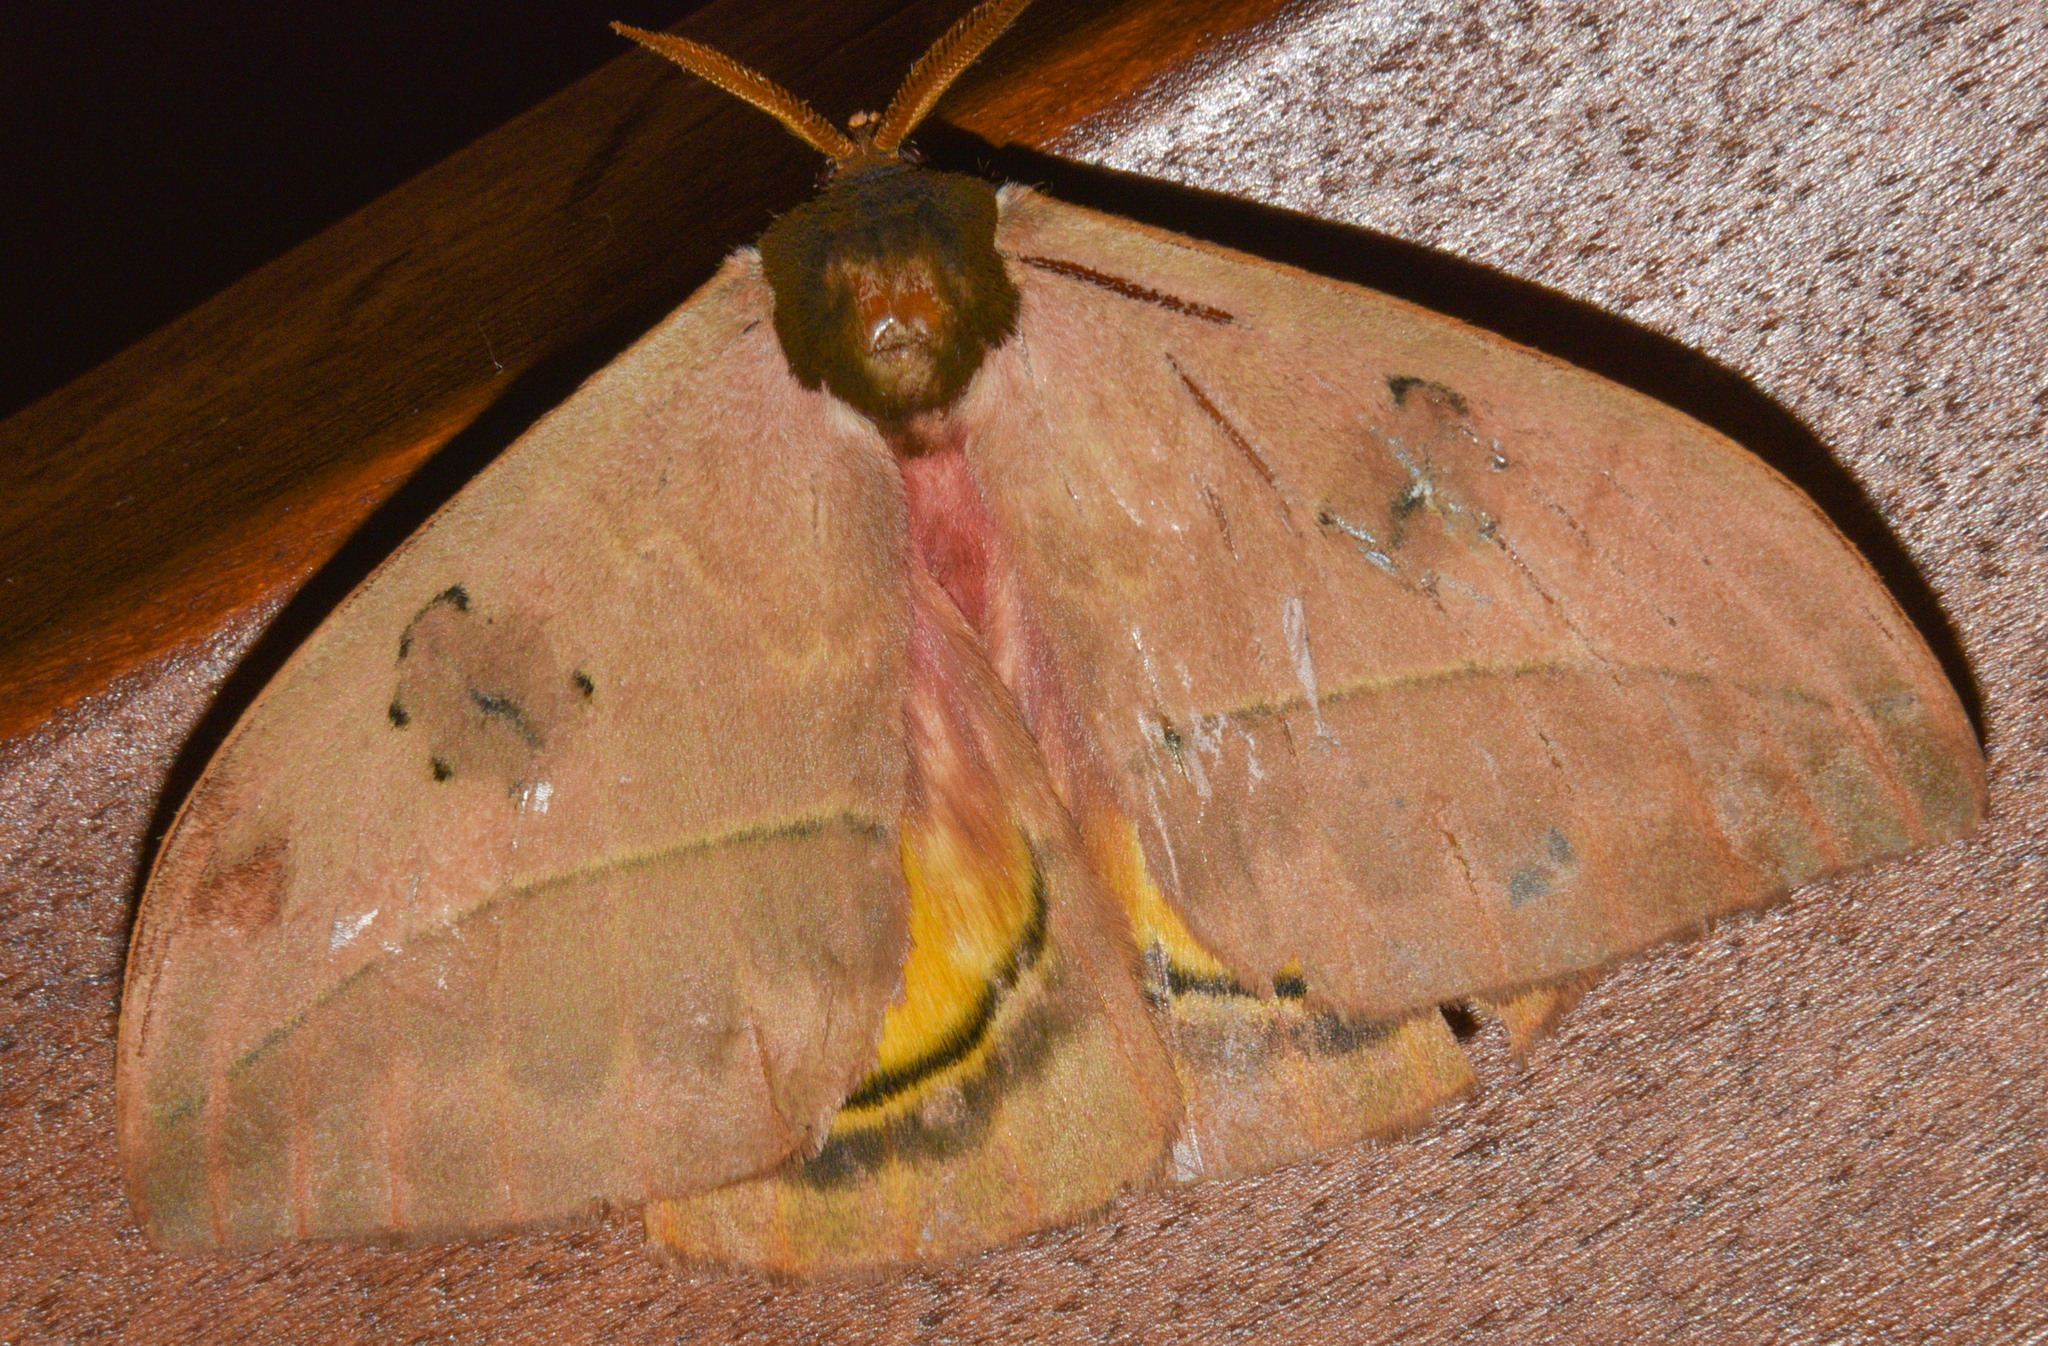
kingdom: Animalia
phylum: Arthropoda
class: Insecta
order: Lepidoptera
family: Saturniidae
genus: Automeris
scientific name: Automeris arianae
